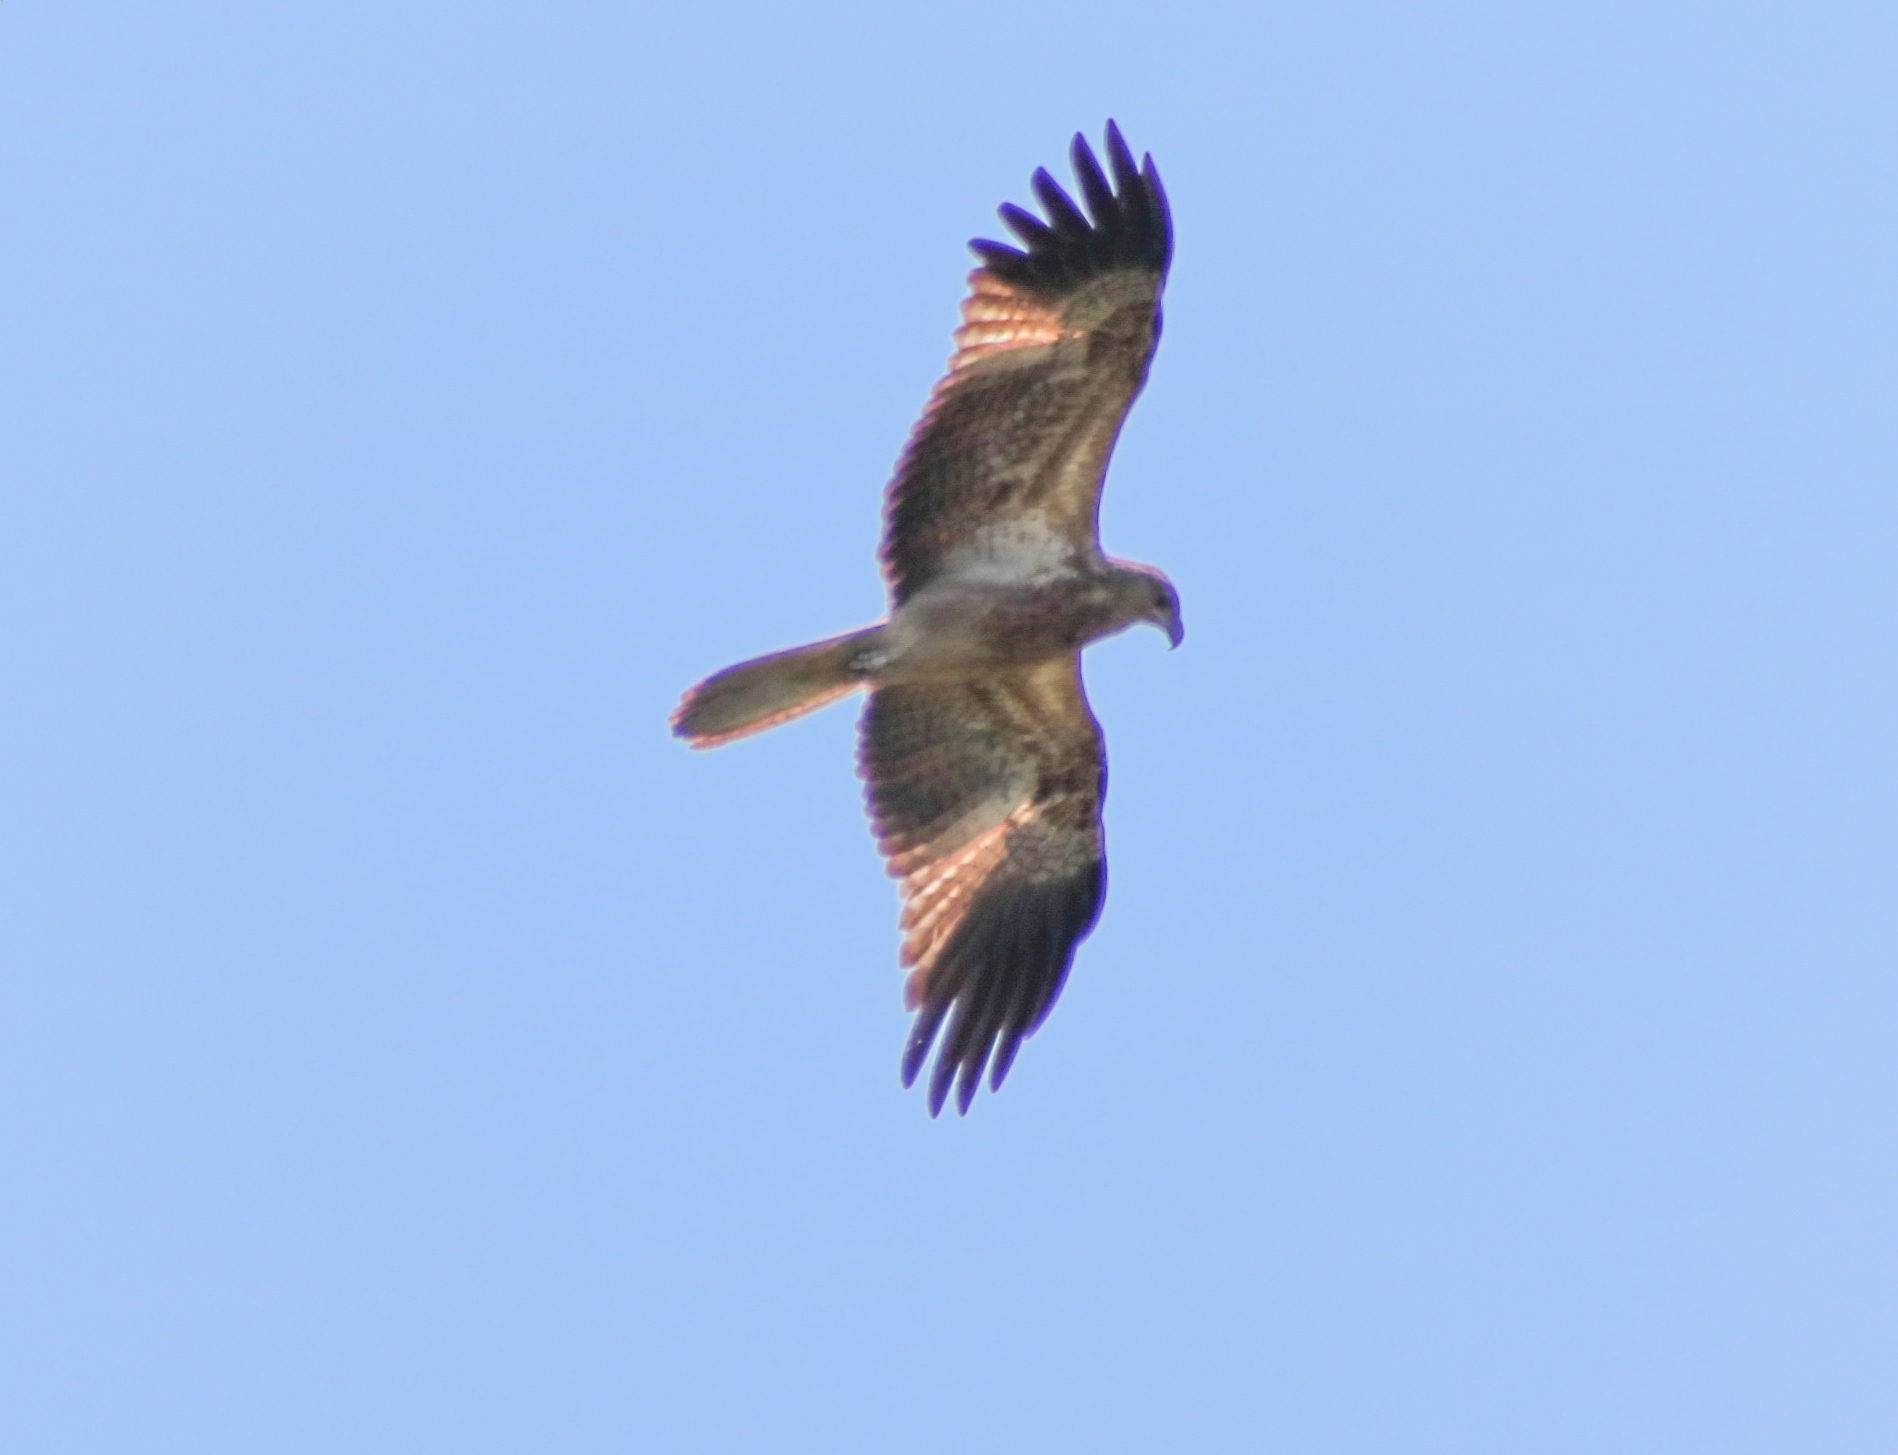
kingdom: Animalia
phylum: Chordata
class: Aves
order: Accipitriformes
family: Accipitridae
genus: Haliastur
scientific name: Haliastur sphenurus
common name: Whistling kite
